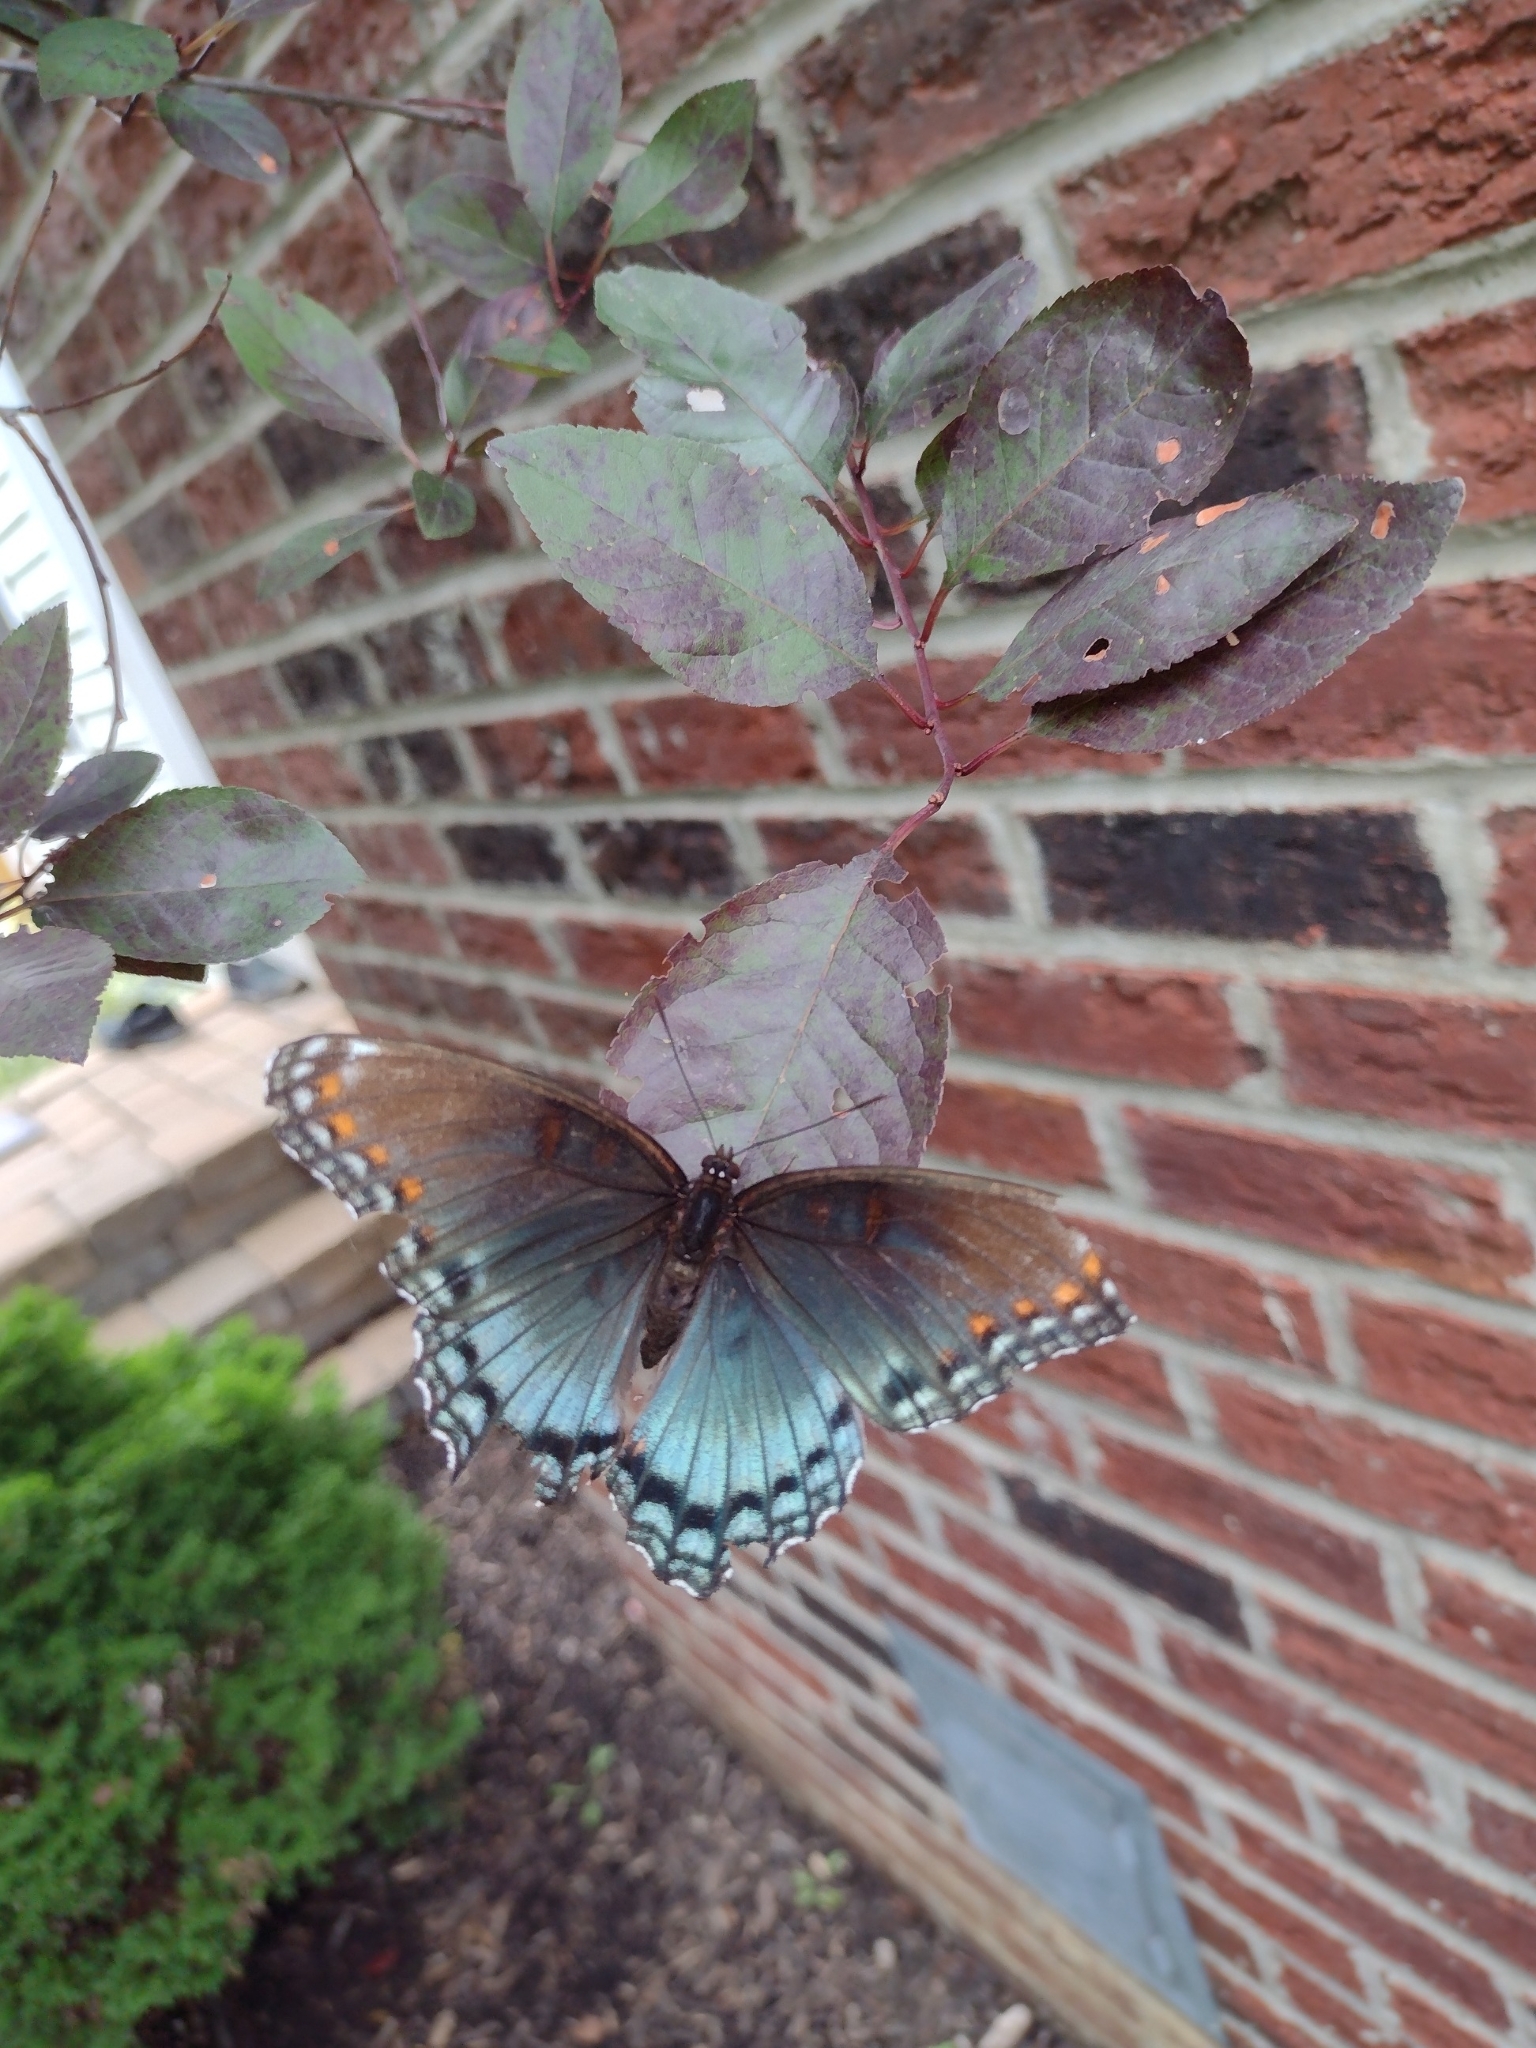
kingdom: Animalia
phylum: Arthropoda
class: Insecta
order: Lepidoptera
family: Nymphalidae
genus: Limenitis
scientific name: Limenitis arthemis
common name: Red-spotted admiral
